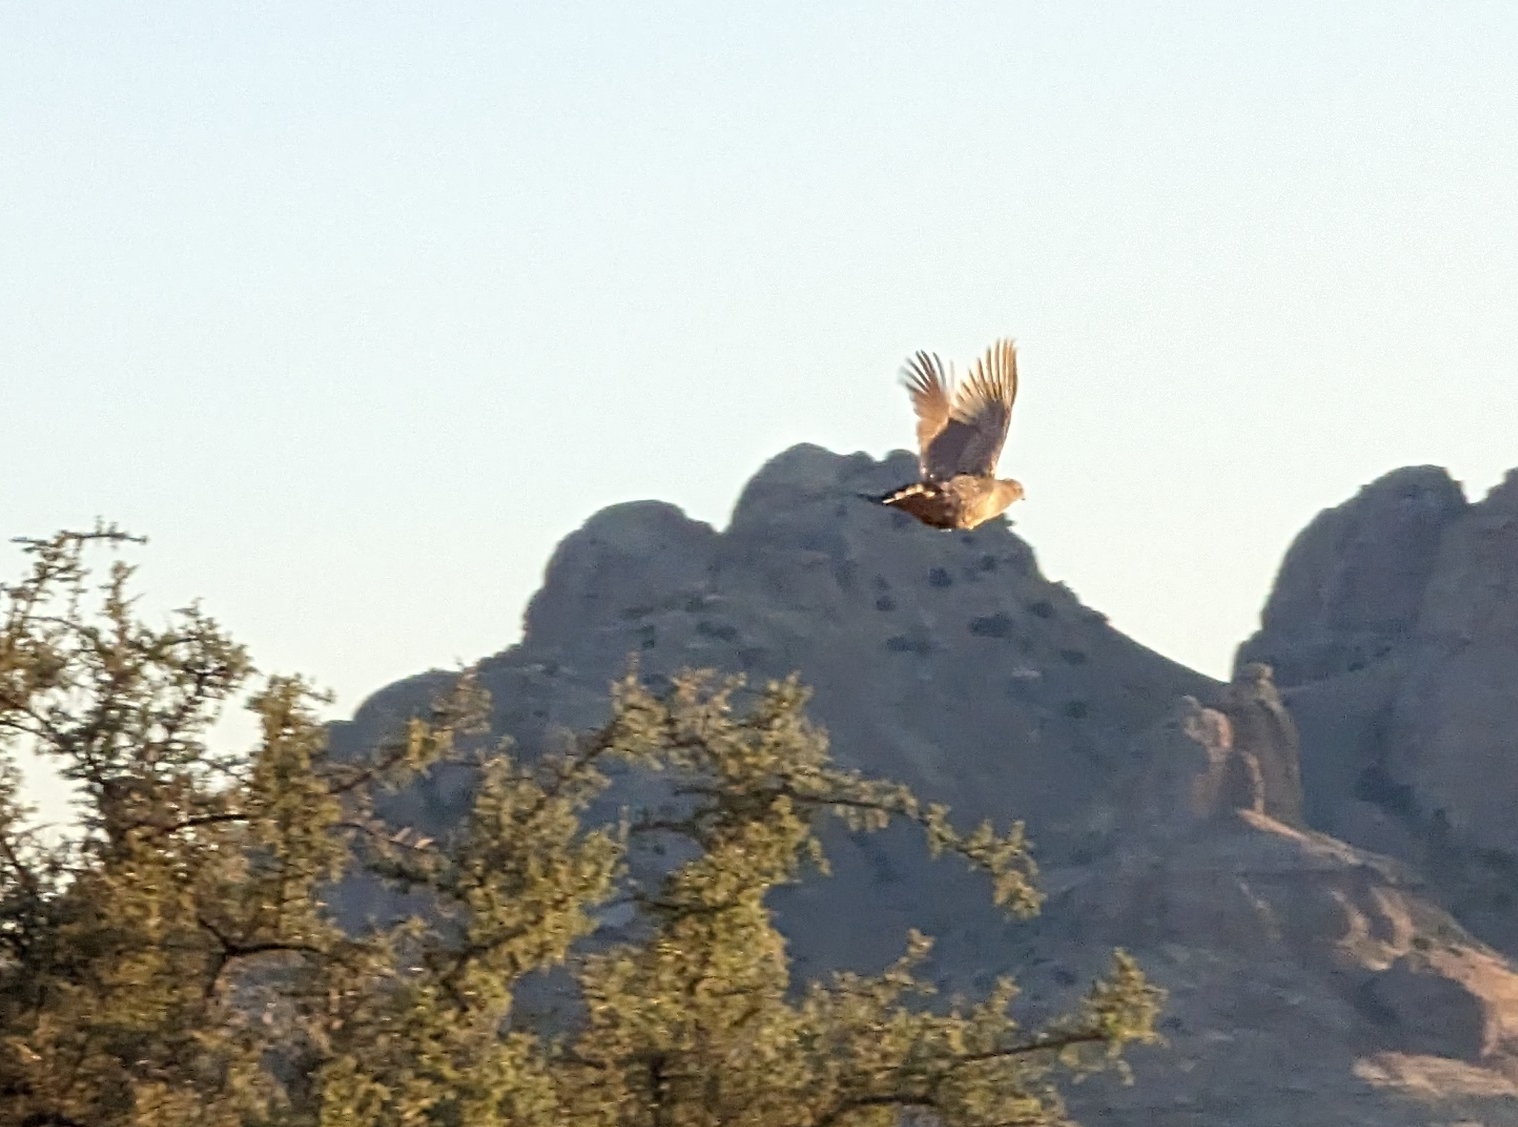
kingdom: Animalia
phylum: Chordata
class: Aves
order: Galliformes
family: Odontophoridae
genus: Callipepla
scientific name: Callipepla squamata
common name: Scaled quail
